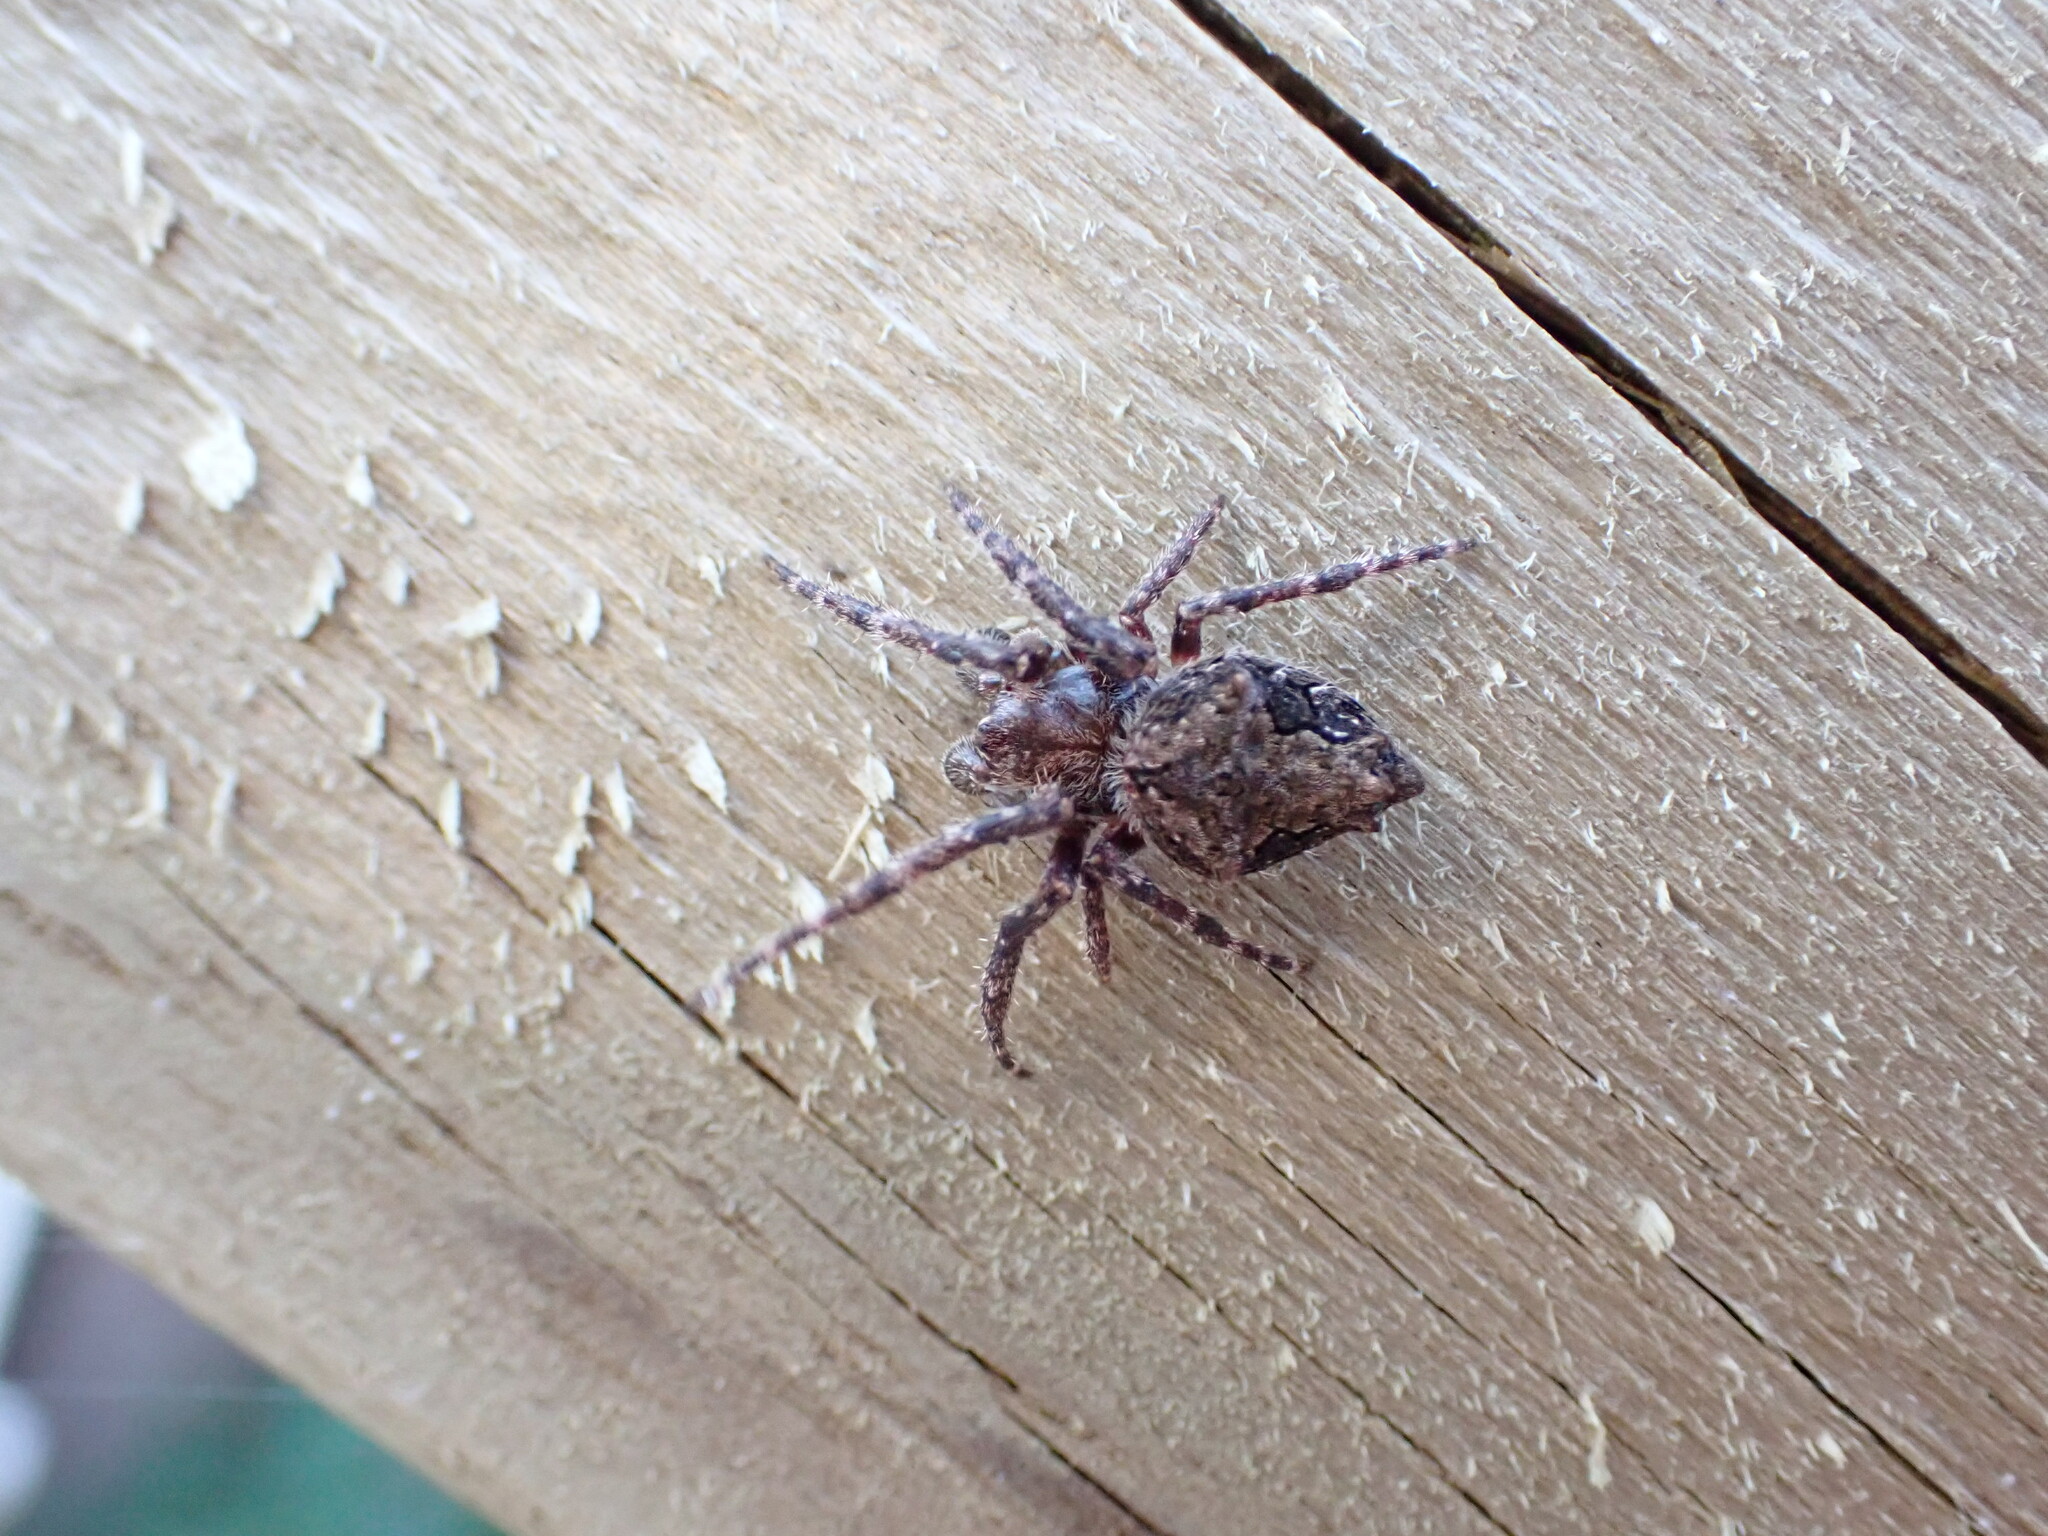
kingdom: Animalia
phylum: Arthropoda
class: Arachnida
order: Araneae
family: Araneidae
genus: Eriophora
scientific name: Eriophora pustulosa
